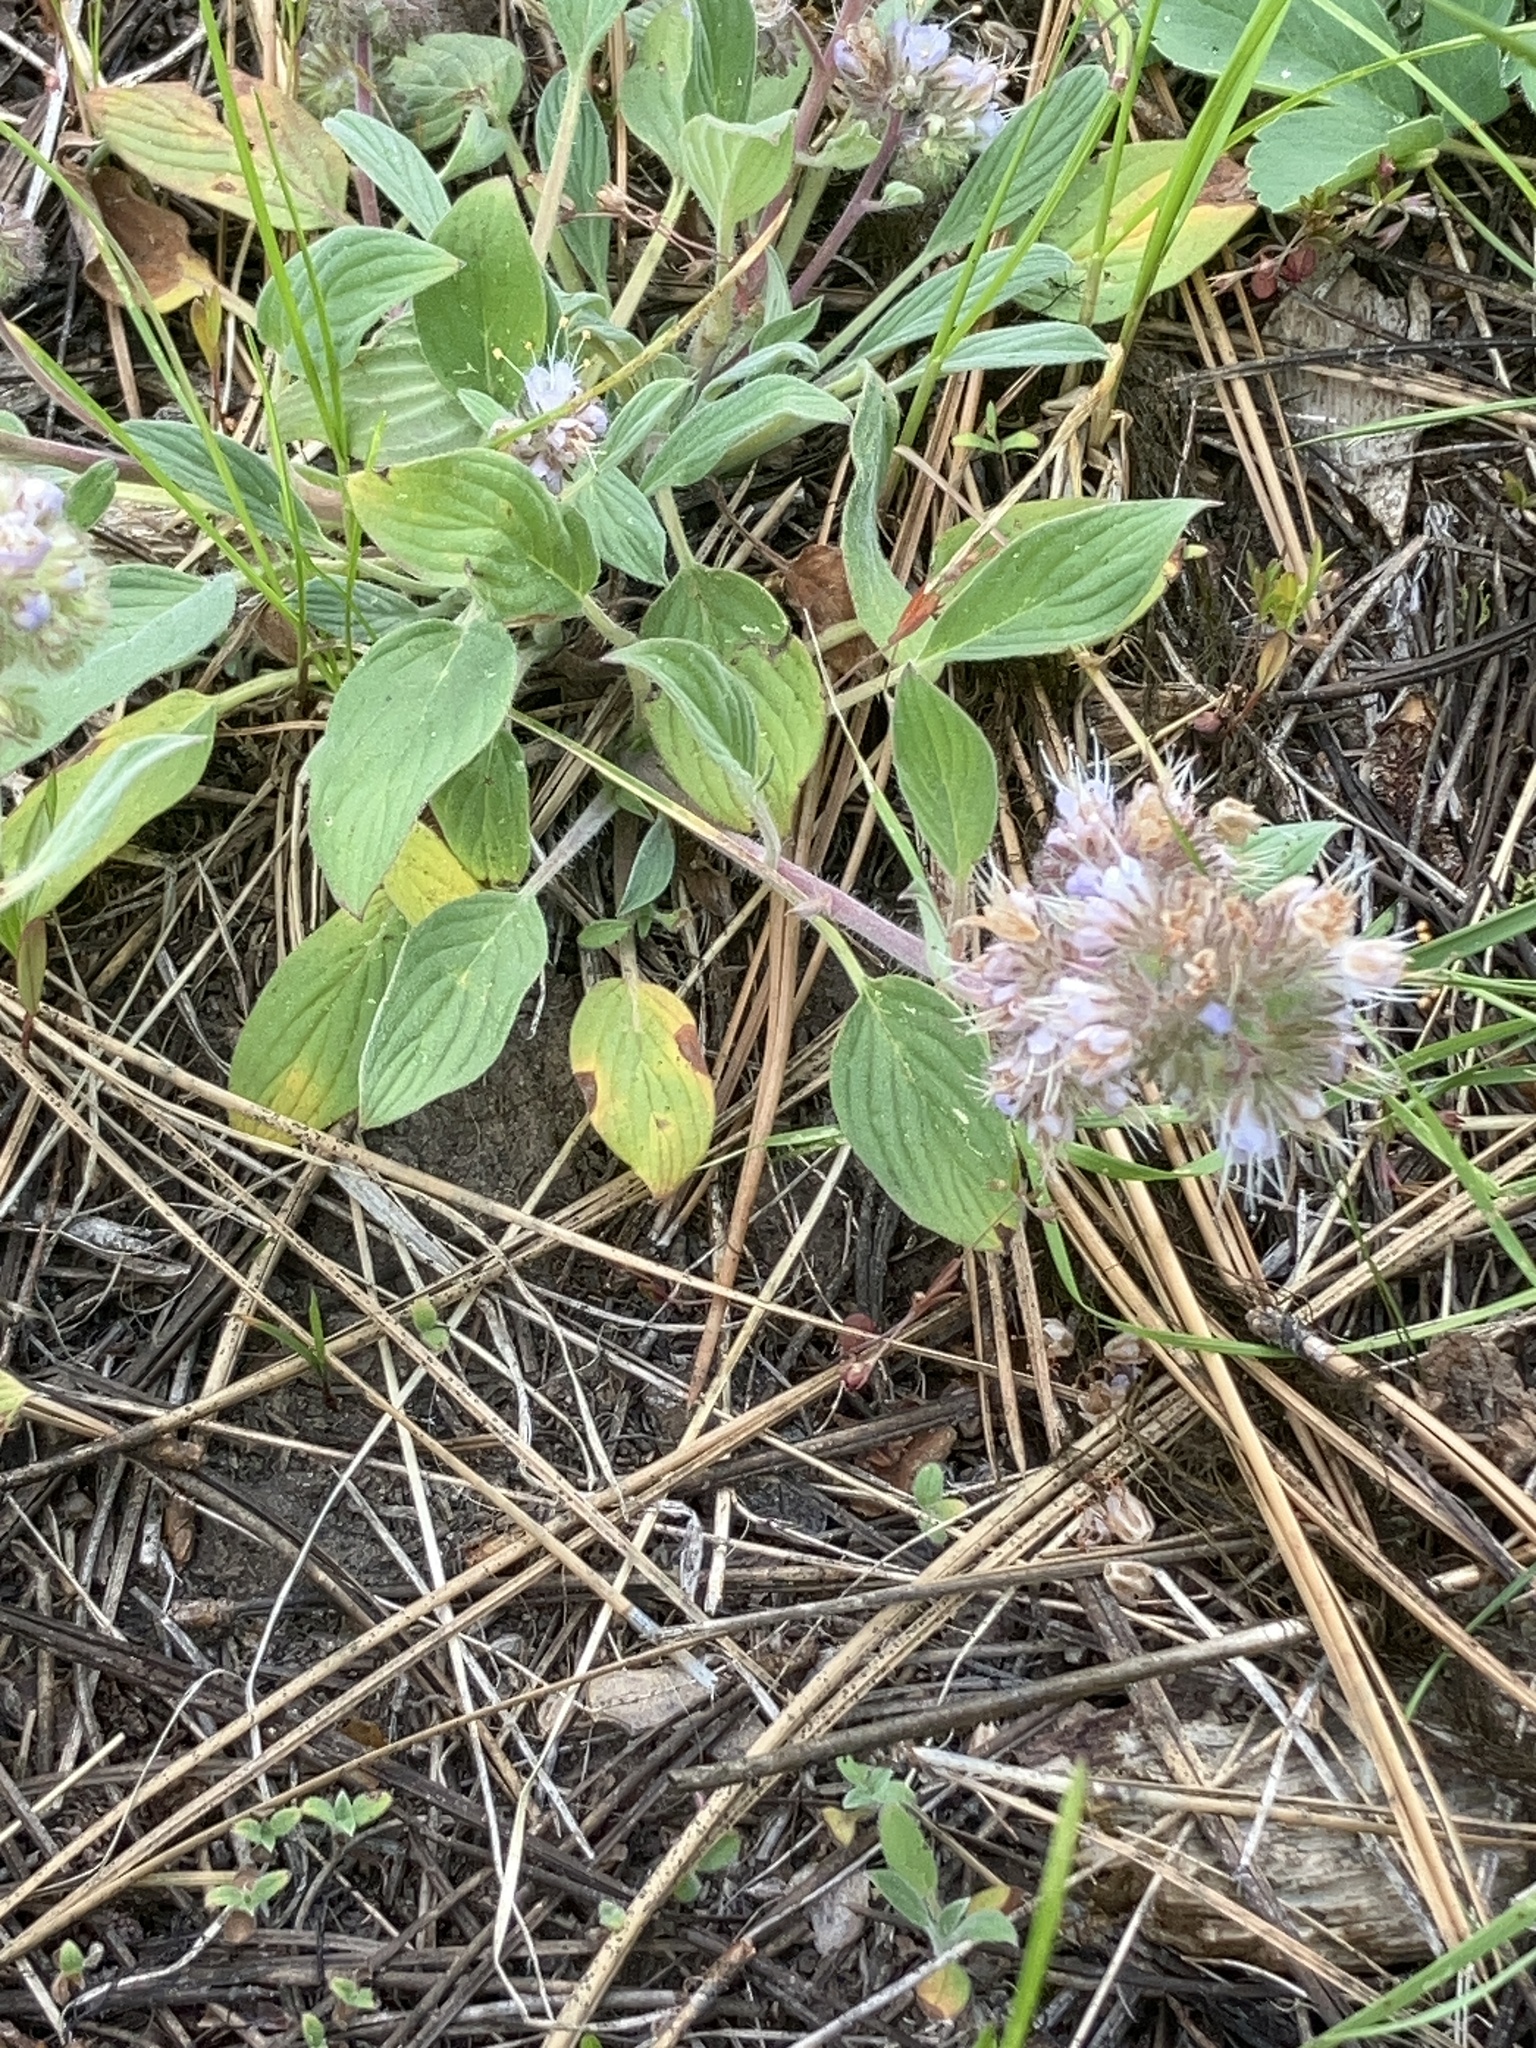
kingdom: Plantae
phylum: Tracheophyta
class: Magnoliopsida
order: Boraginales
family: Hydrophyllaceae
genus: Phacelia
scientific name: Phacelia hastata
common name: Silver-leaved phacelia
